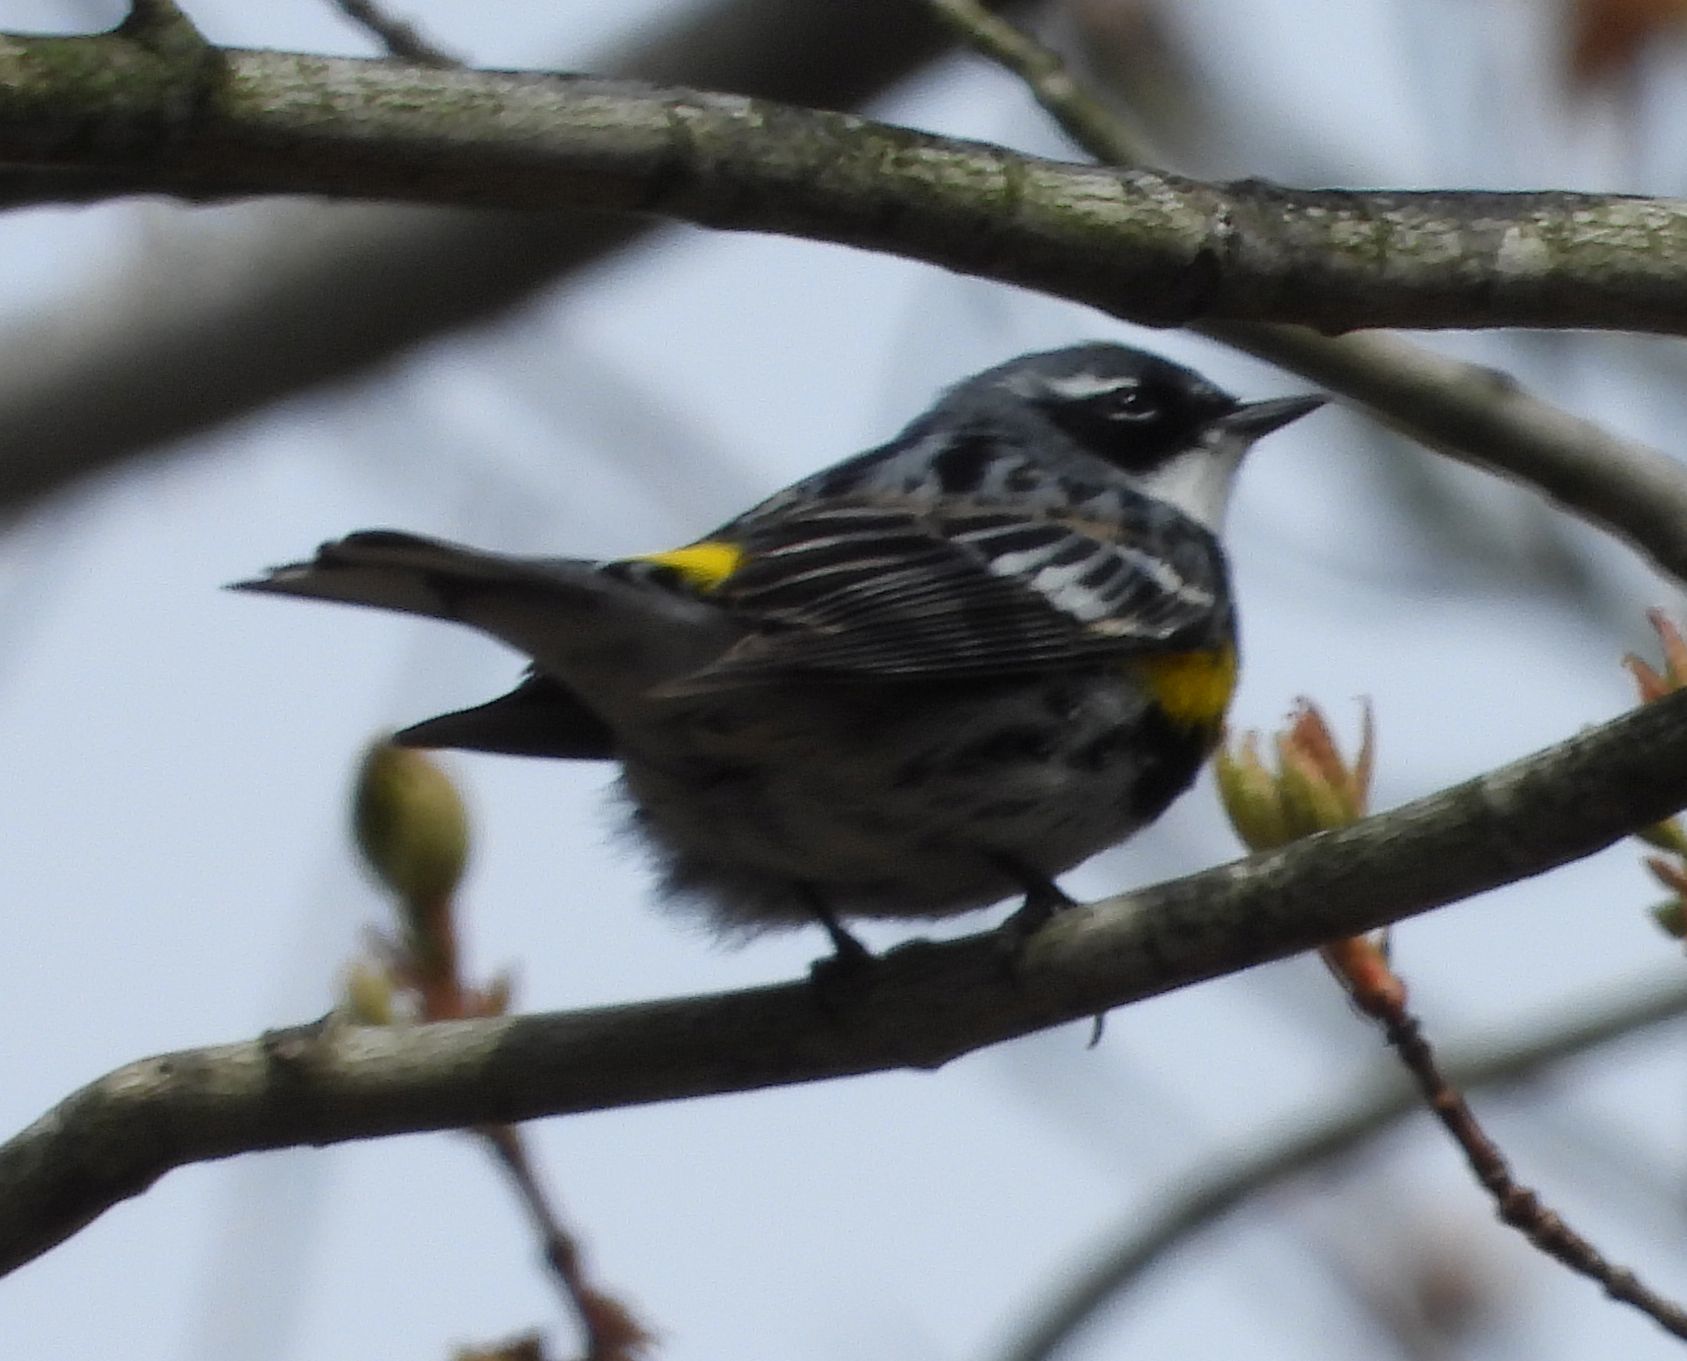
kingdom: Animalia
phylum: Chordata
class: Aves
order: Passeriformes
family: Parulidae
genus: Setophaga
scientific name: Setophaga coronata
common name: Myrtle warbler
